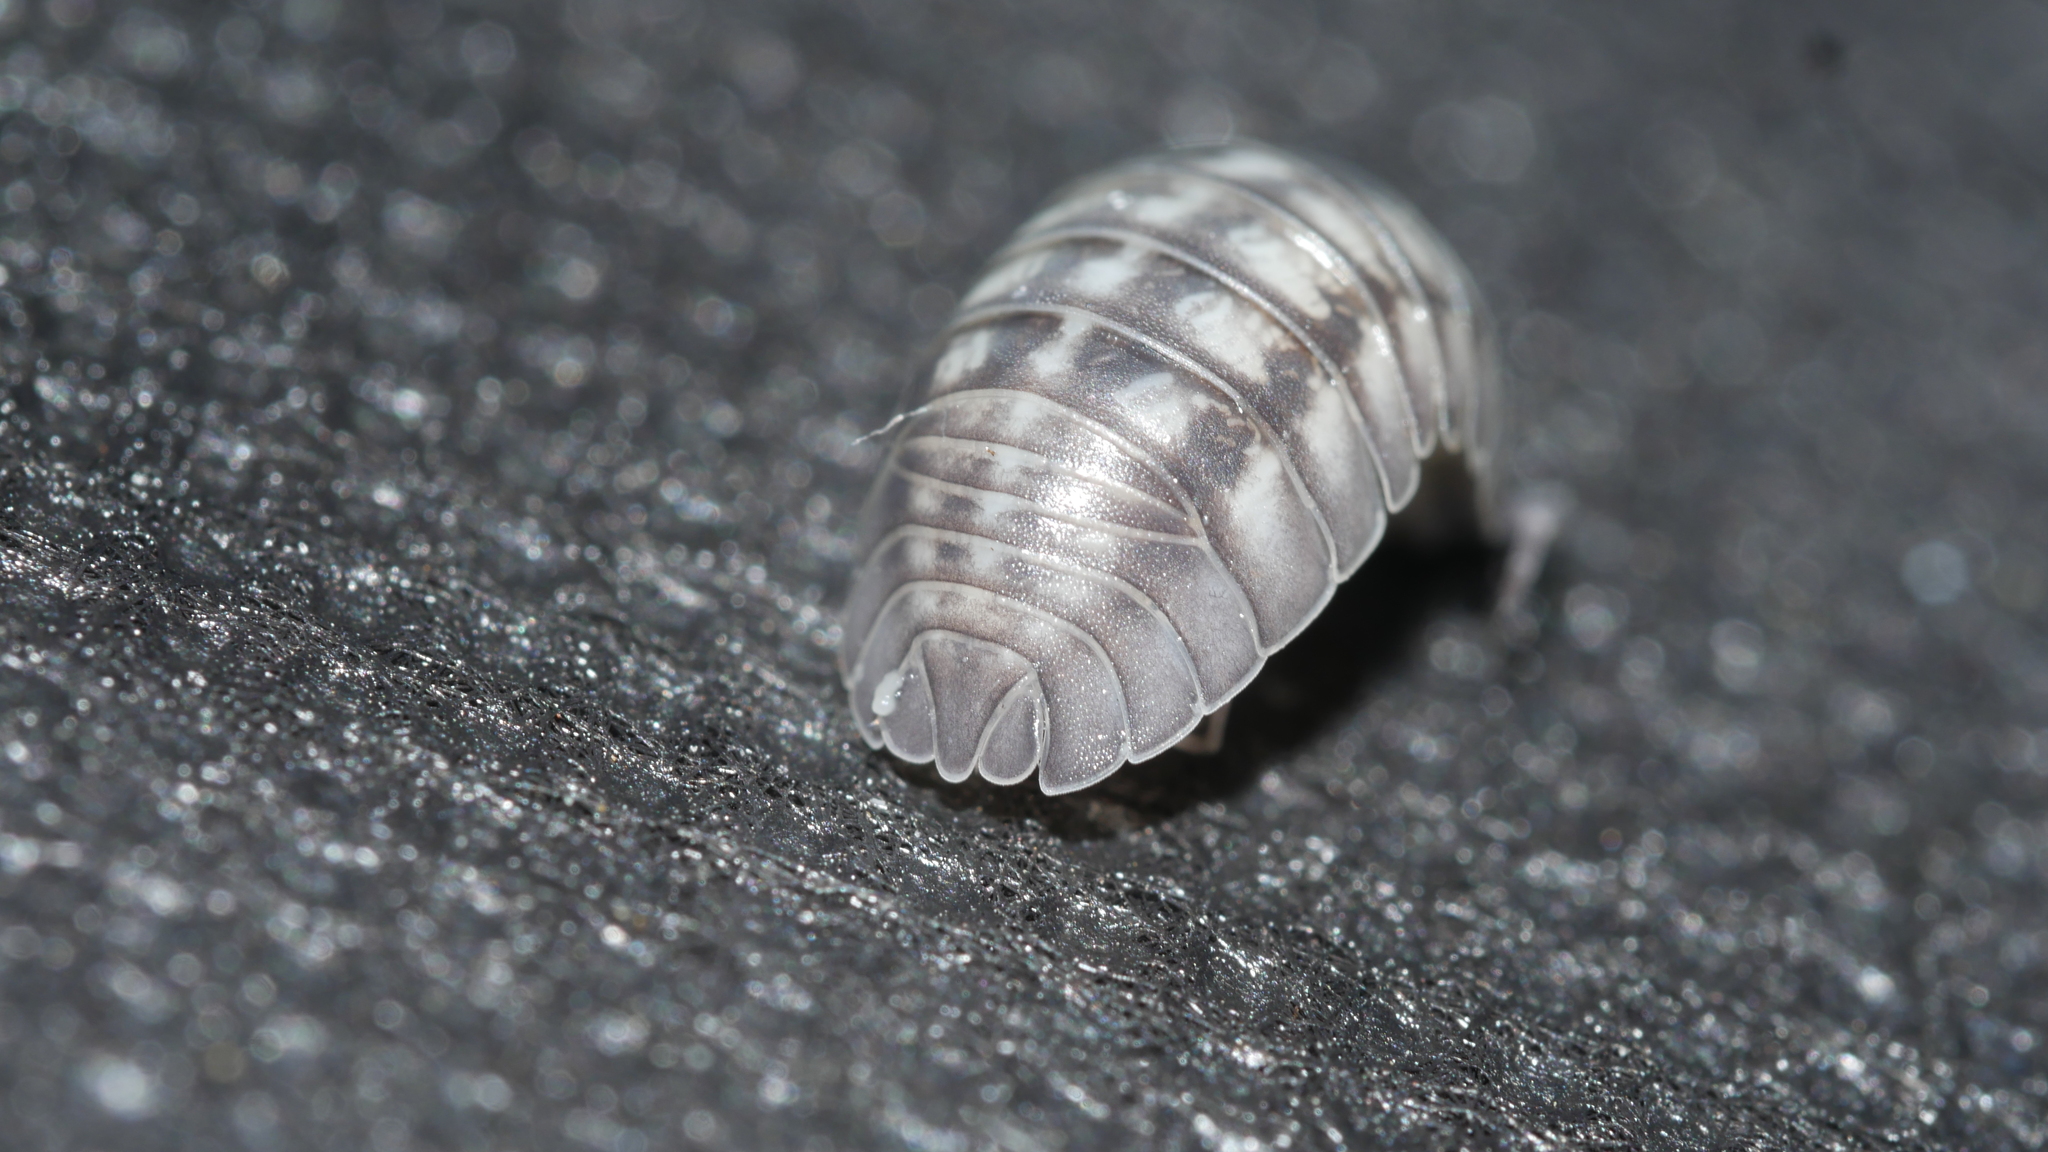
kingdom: Animalia
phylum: Arthropoda
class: Malacostraca
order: Isopoda
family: Armadillidiidae
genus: Armadillidium
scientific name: Armadillidium nasatum
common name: Isopod
